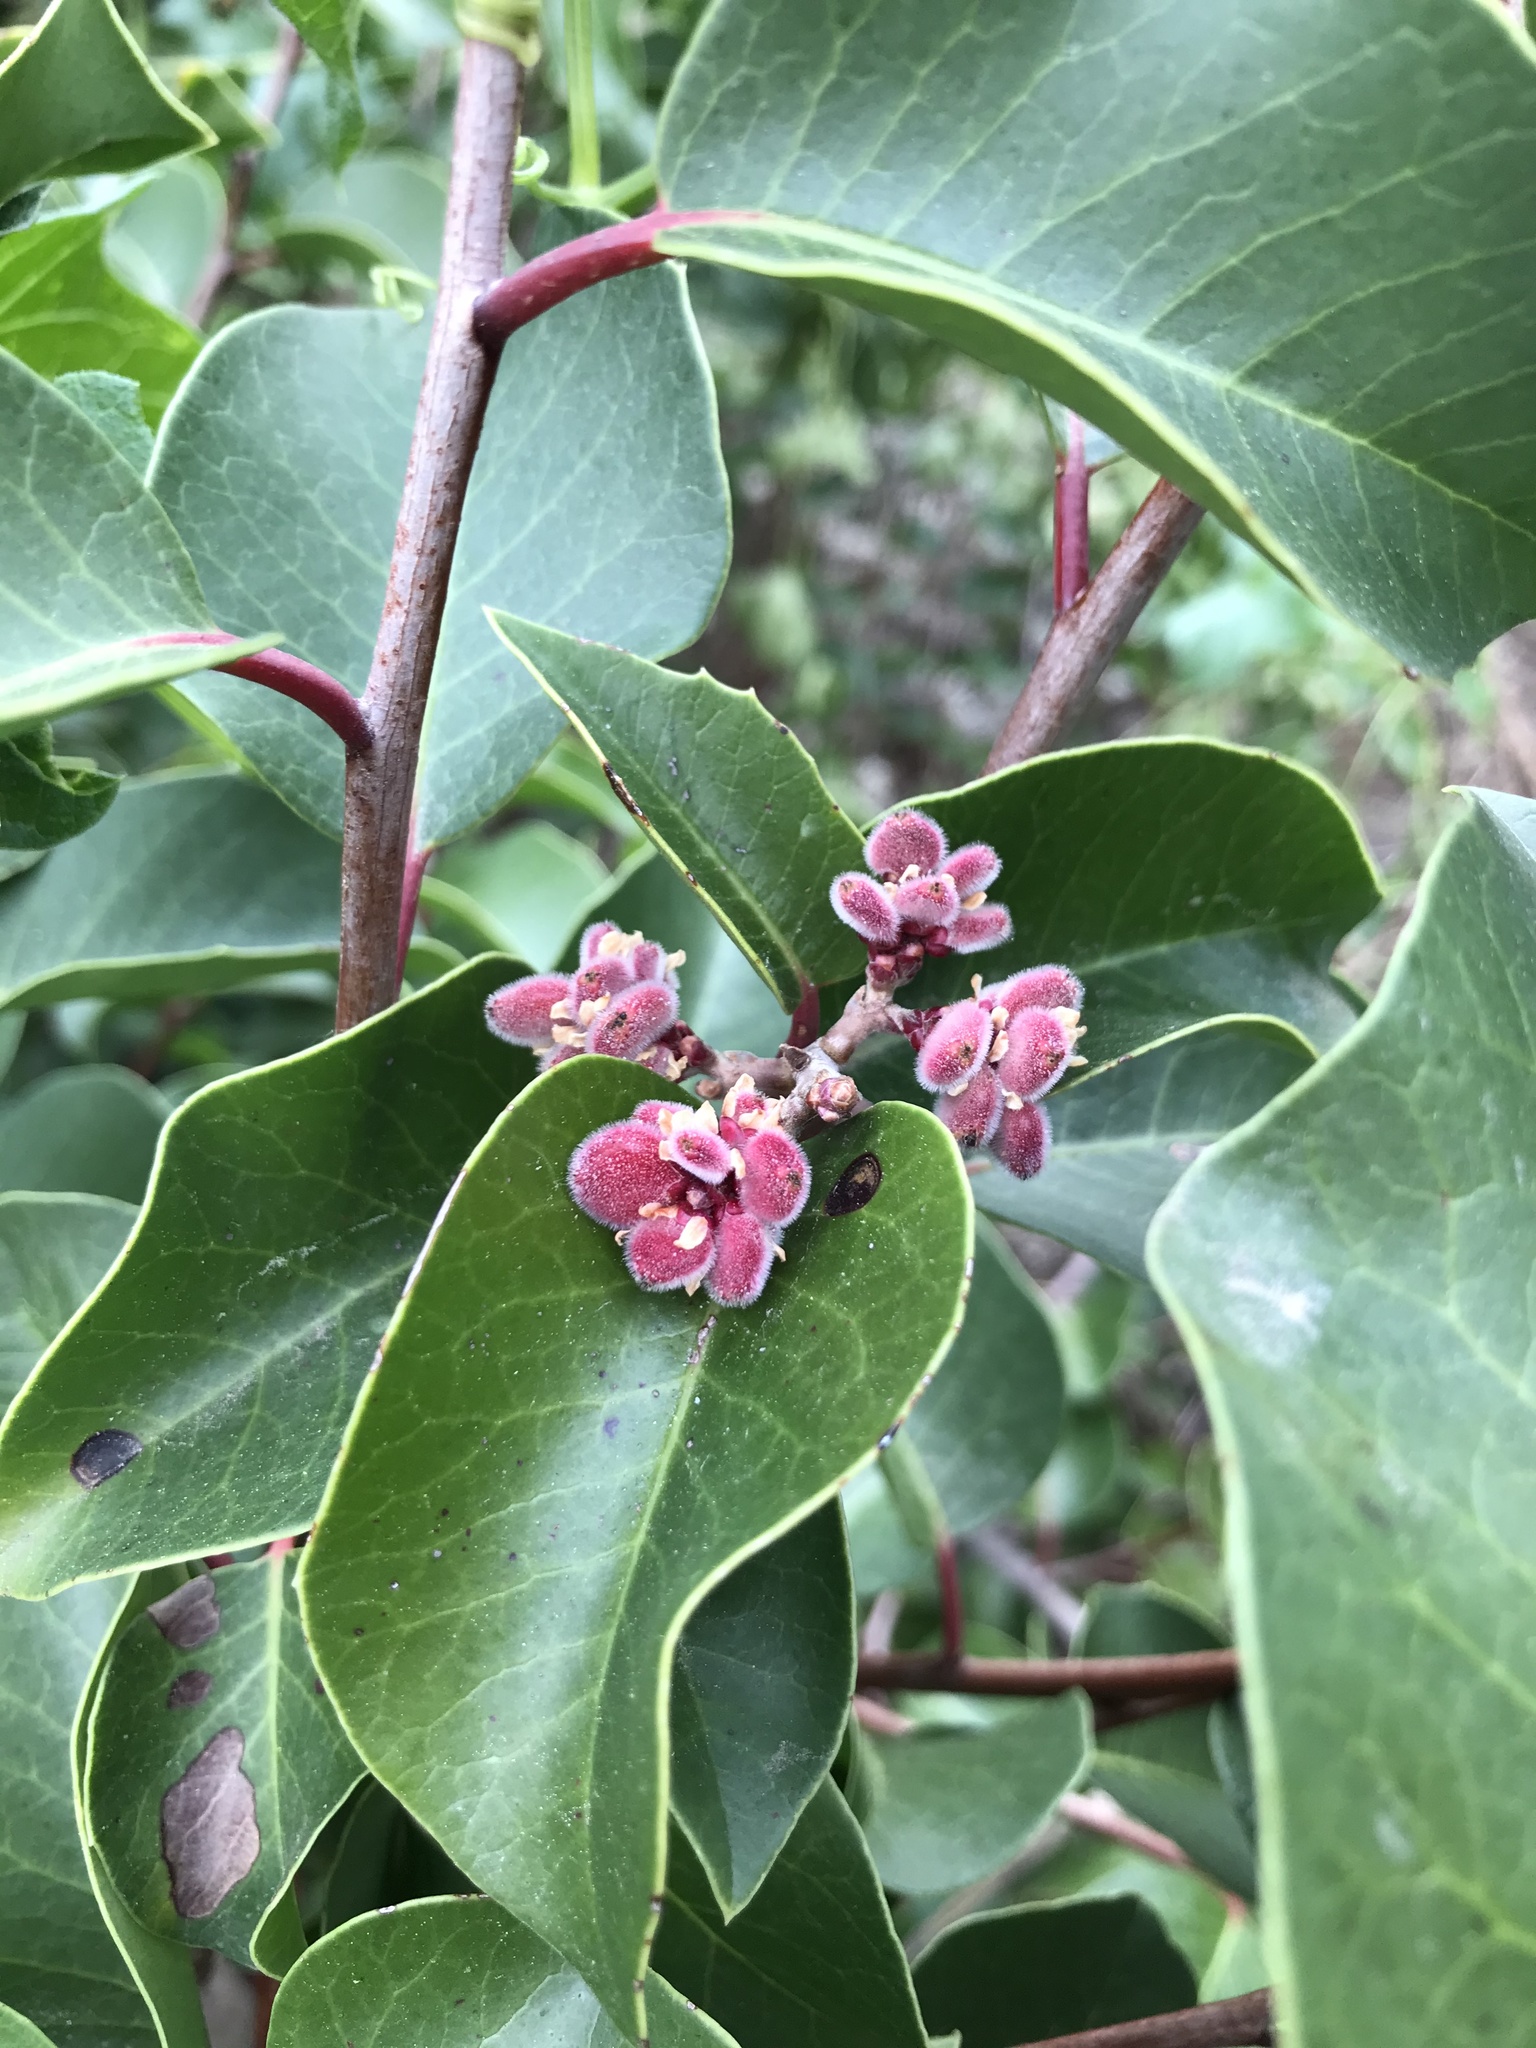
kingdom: Plantae
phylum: Tracheophyta
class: Magnoliopsida
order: Sapindales
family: Anacardiaceae
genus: Rhus
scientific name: Rhus ovata
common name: Sugar sumac
